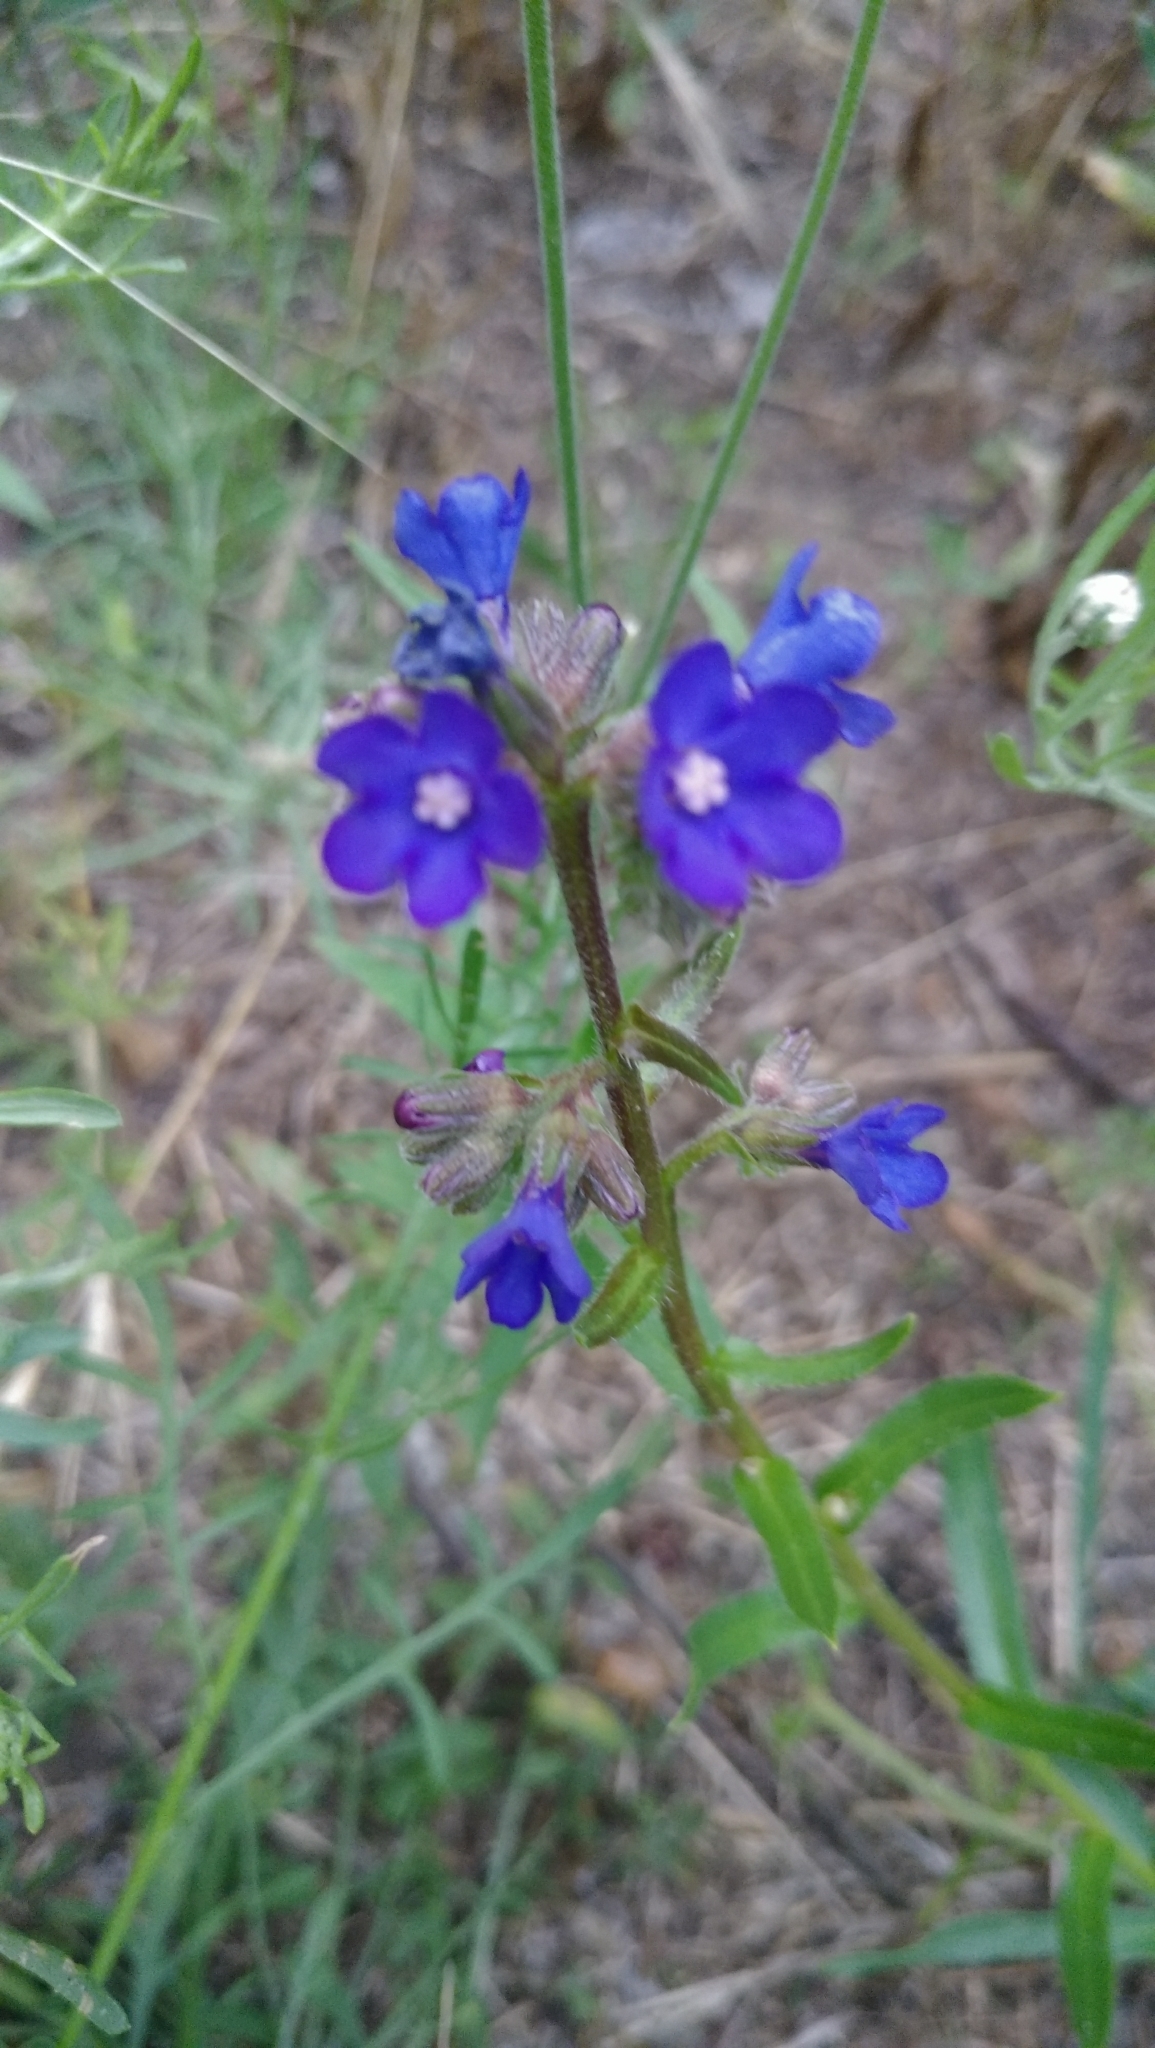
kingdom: Plantae
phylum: Tracheophyta
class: Magnoliopsida
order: Boraginales
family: Boraginaceae
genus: Anchusa
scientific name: Anchusa gmelinii
